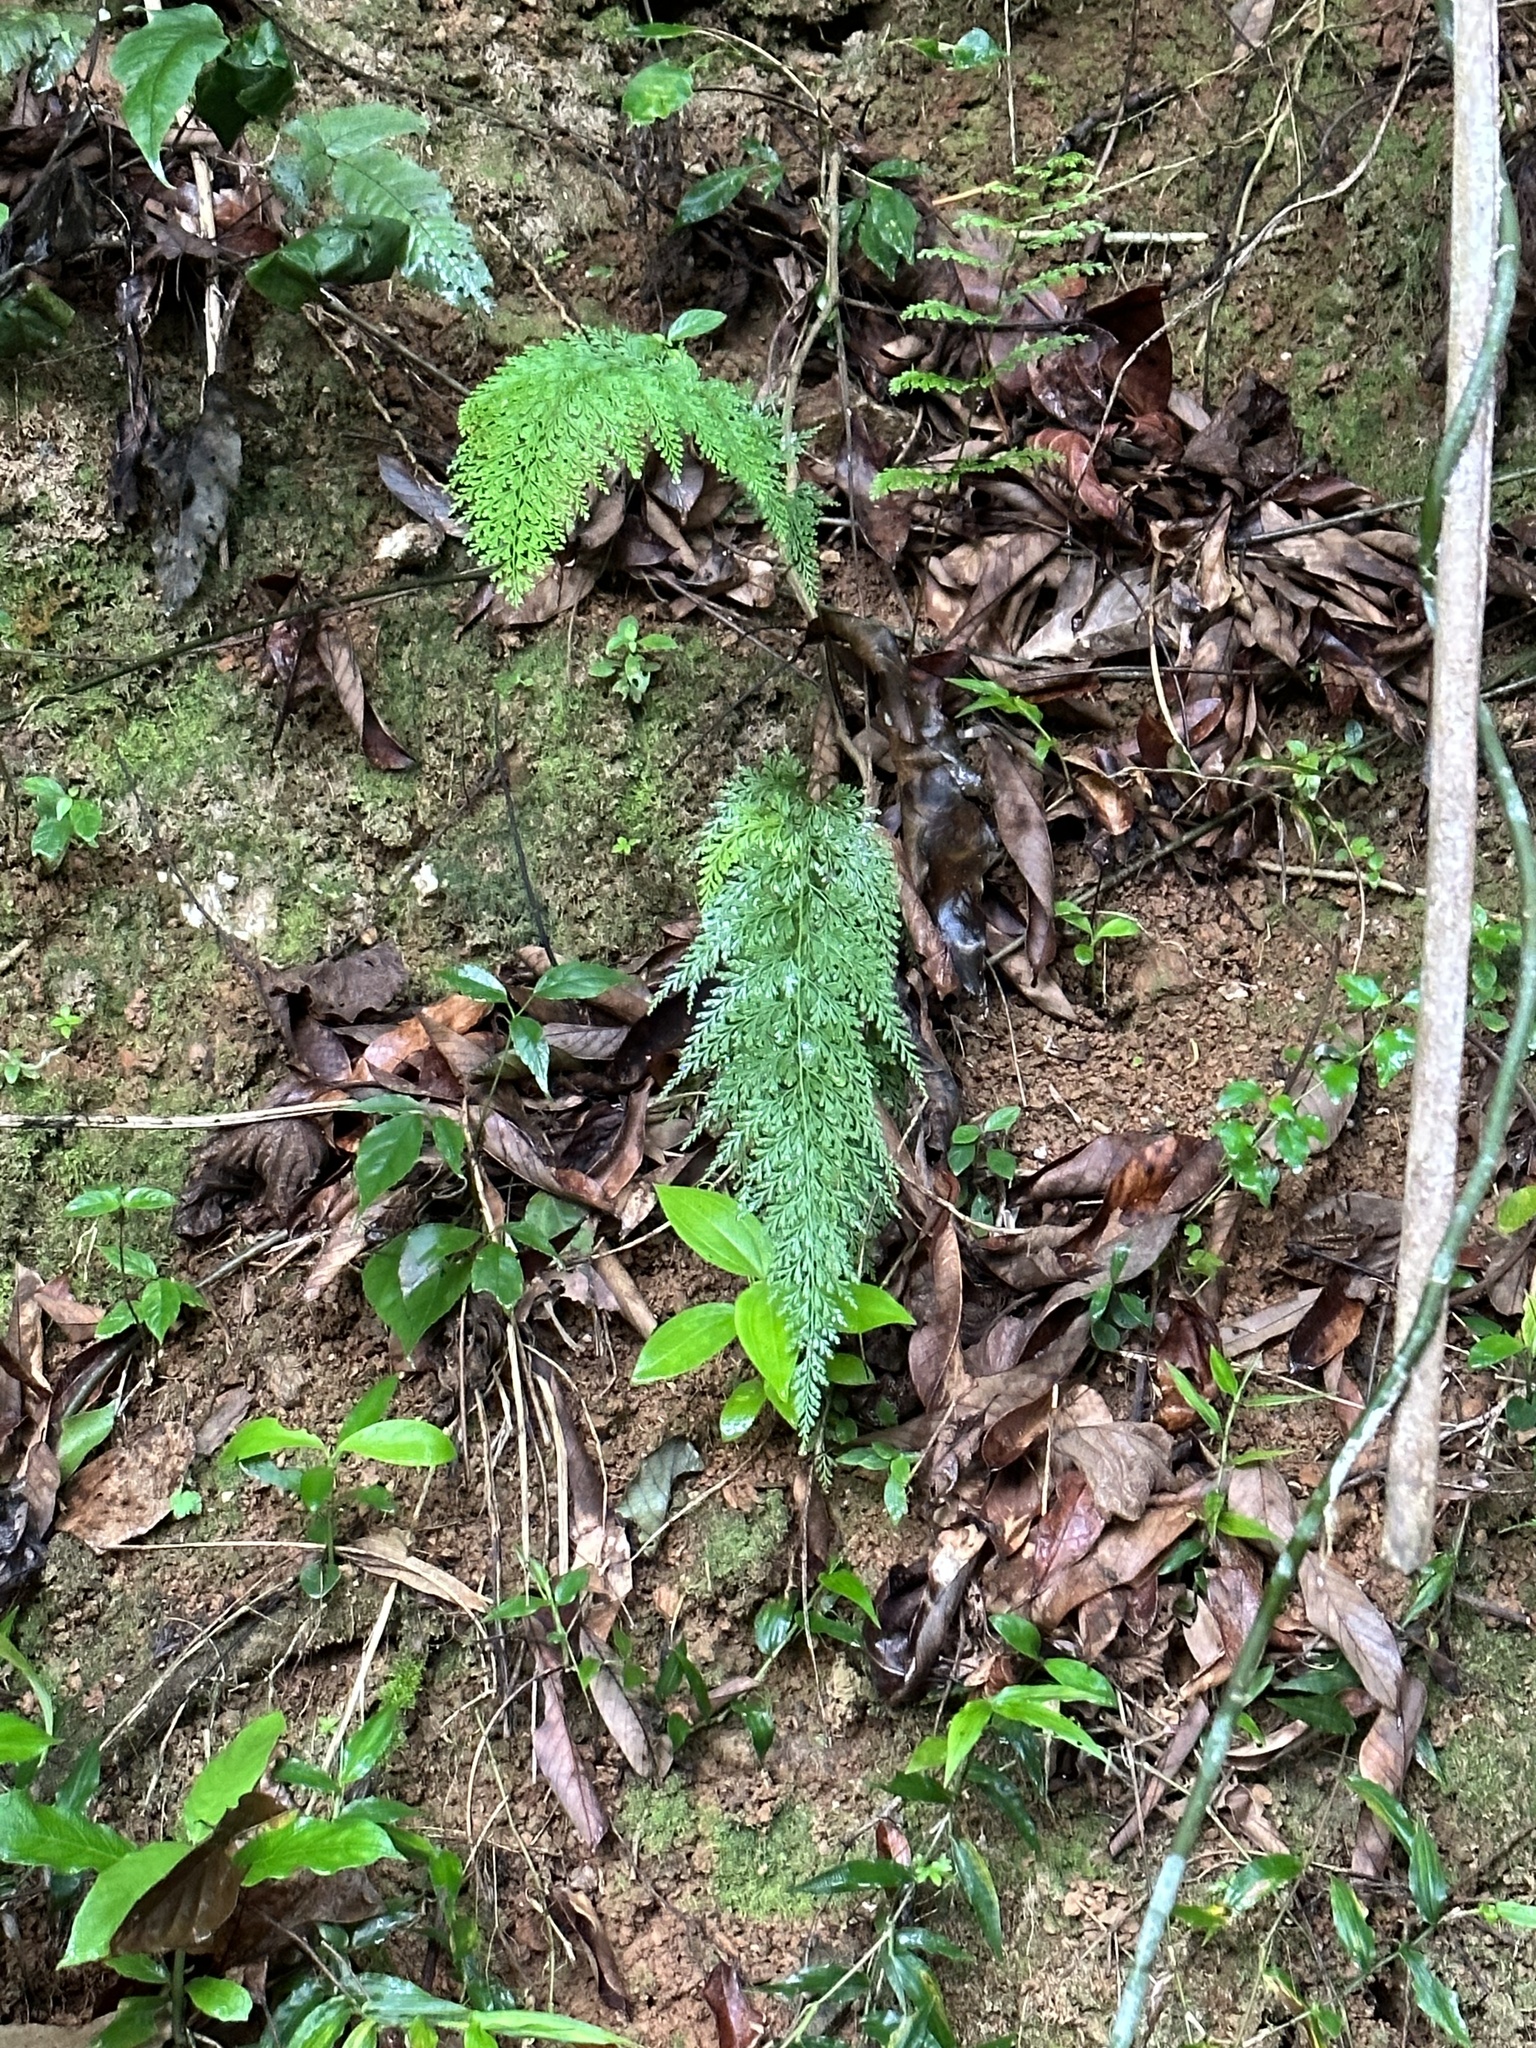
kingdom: Plantae
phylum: Tracheophyta
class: Polypodiopsida
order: Polypodiales
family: Lindsaeaceae
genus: Odontosoria
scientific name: Odontosoria chinensis
